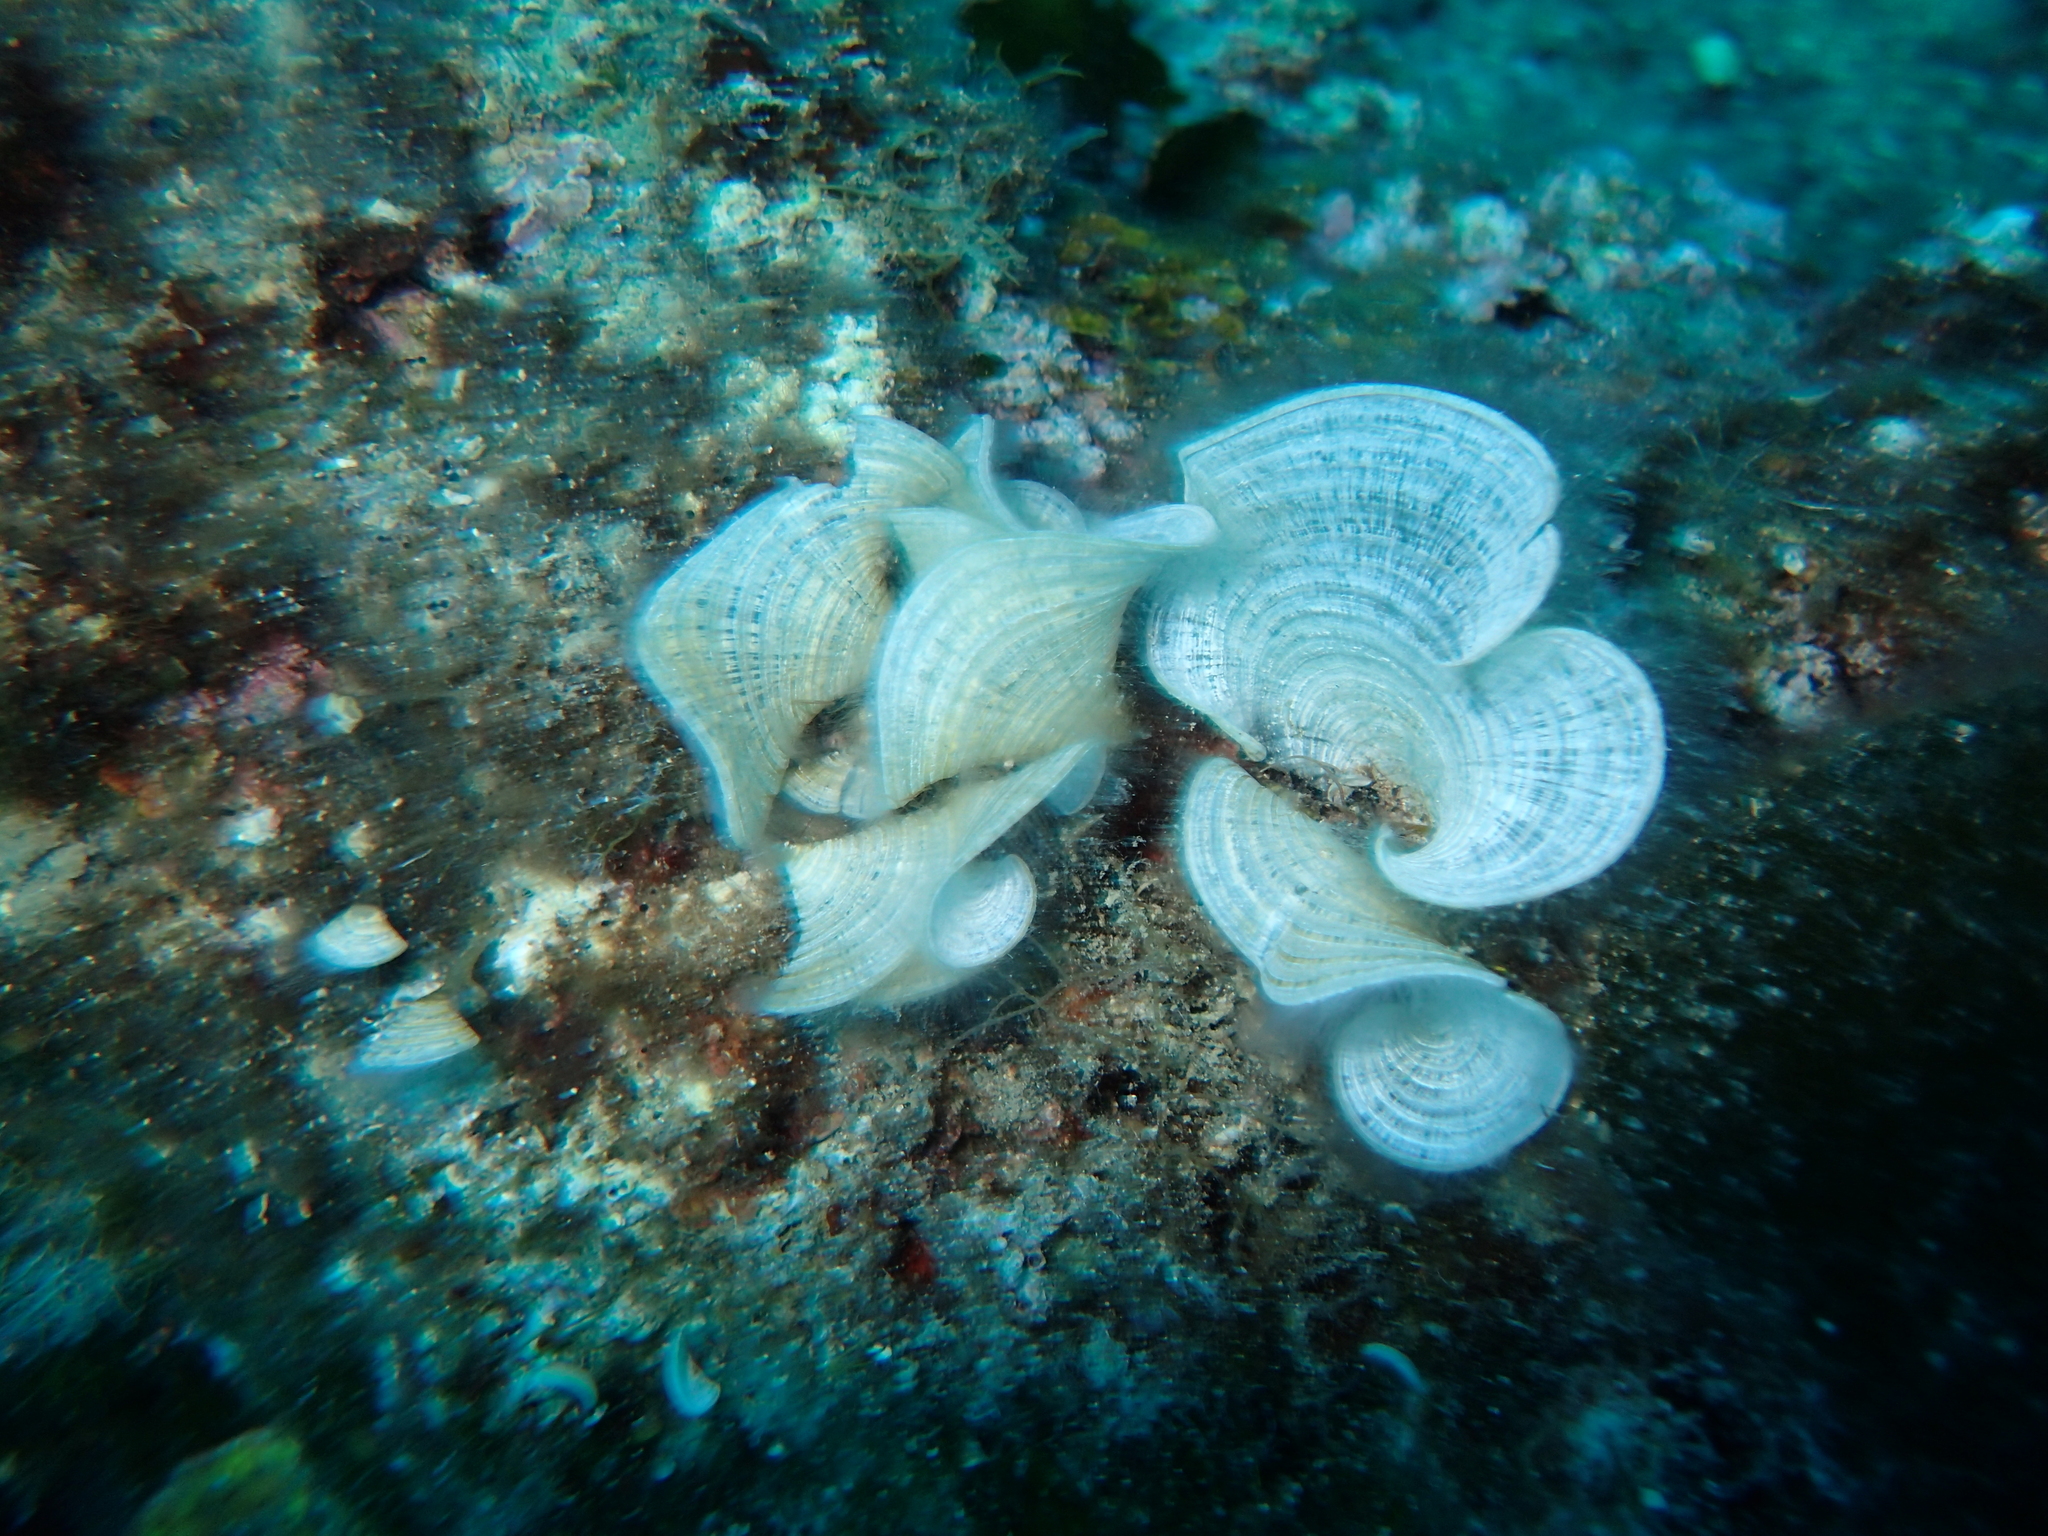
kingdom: Chromista
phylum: Ochrophyta
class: Phaeophyceae
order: Dictyotales
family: Dictyotaceae
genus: Padina
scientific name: Padina
